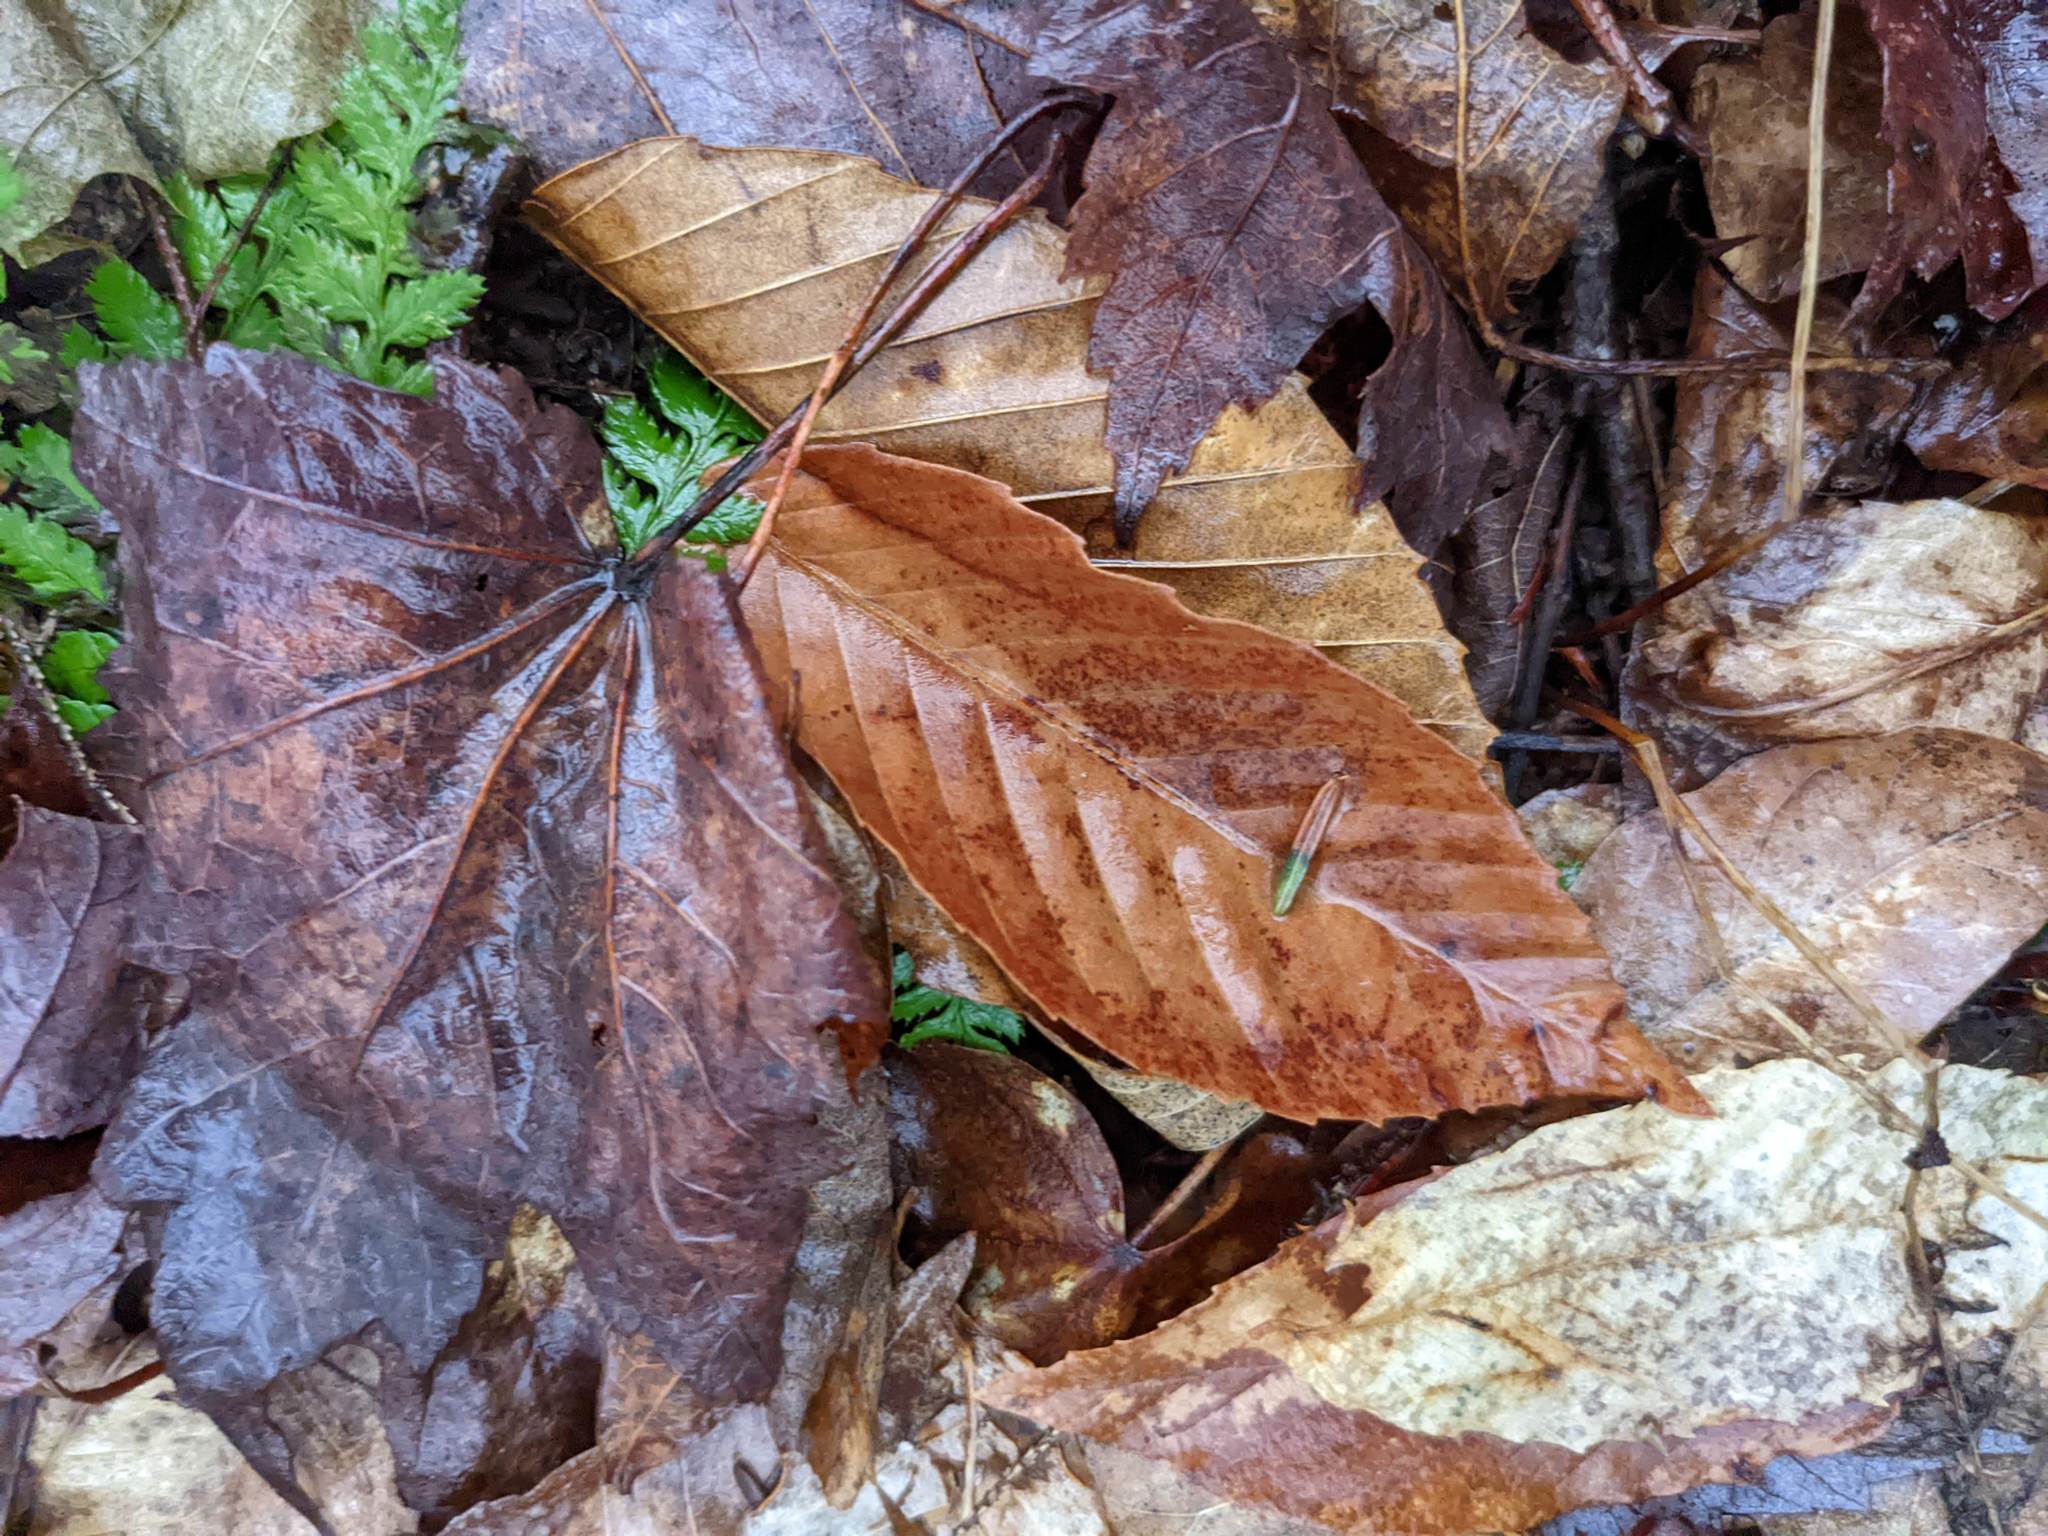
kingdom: Plantae
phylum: Tracheophyta
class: Magnoliopsida
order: Fagales
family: Fagaceae
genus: Fagus
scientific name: Fagus grandifolia
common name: American beech
